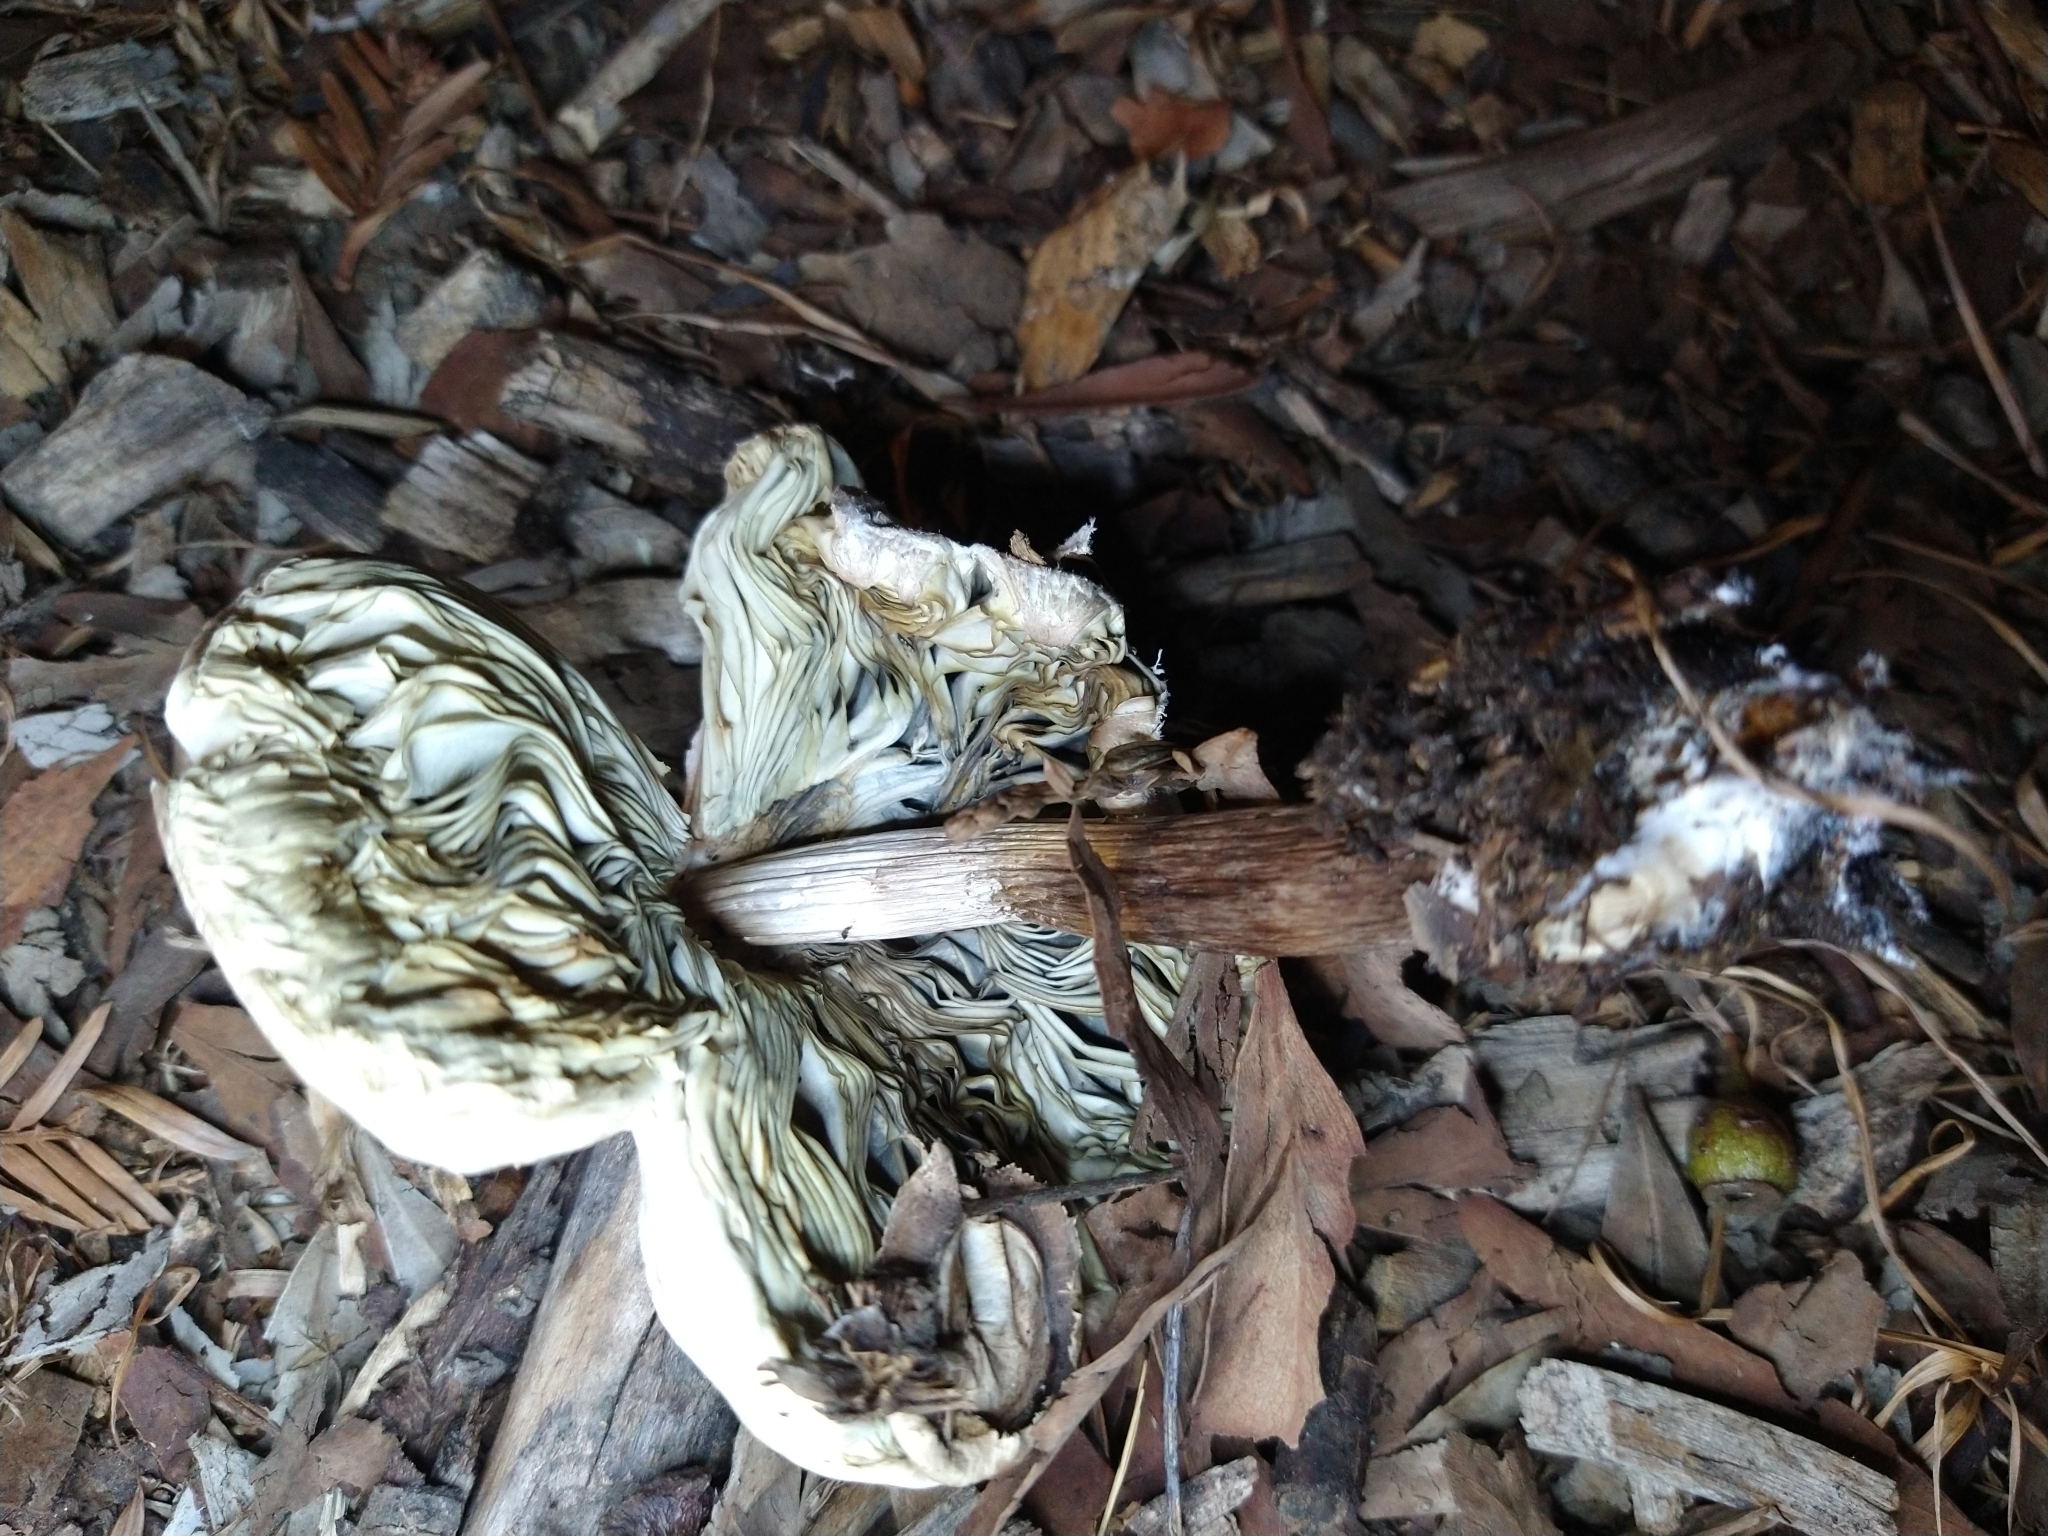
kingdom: Fungi
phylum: Basidiomycota
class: Agaricomycetes
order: Agaricales
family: Agaricaceae
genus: Chlorophyllum
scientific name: Chlorophyllum molybdites
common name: False parasol
